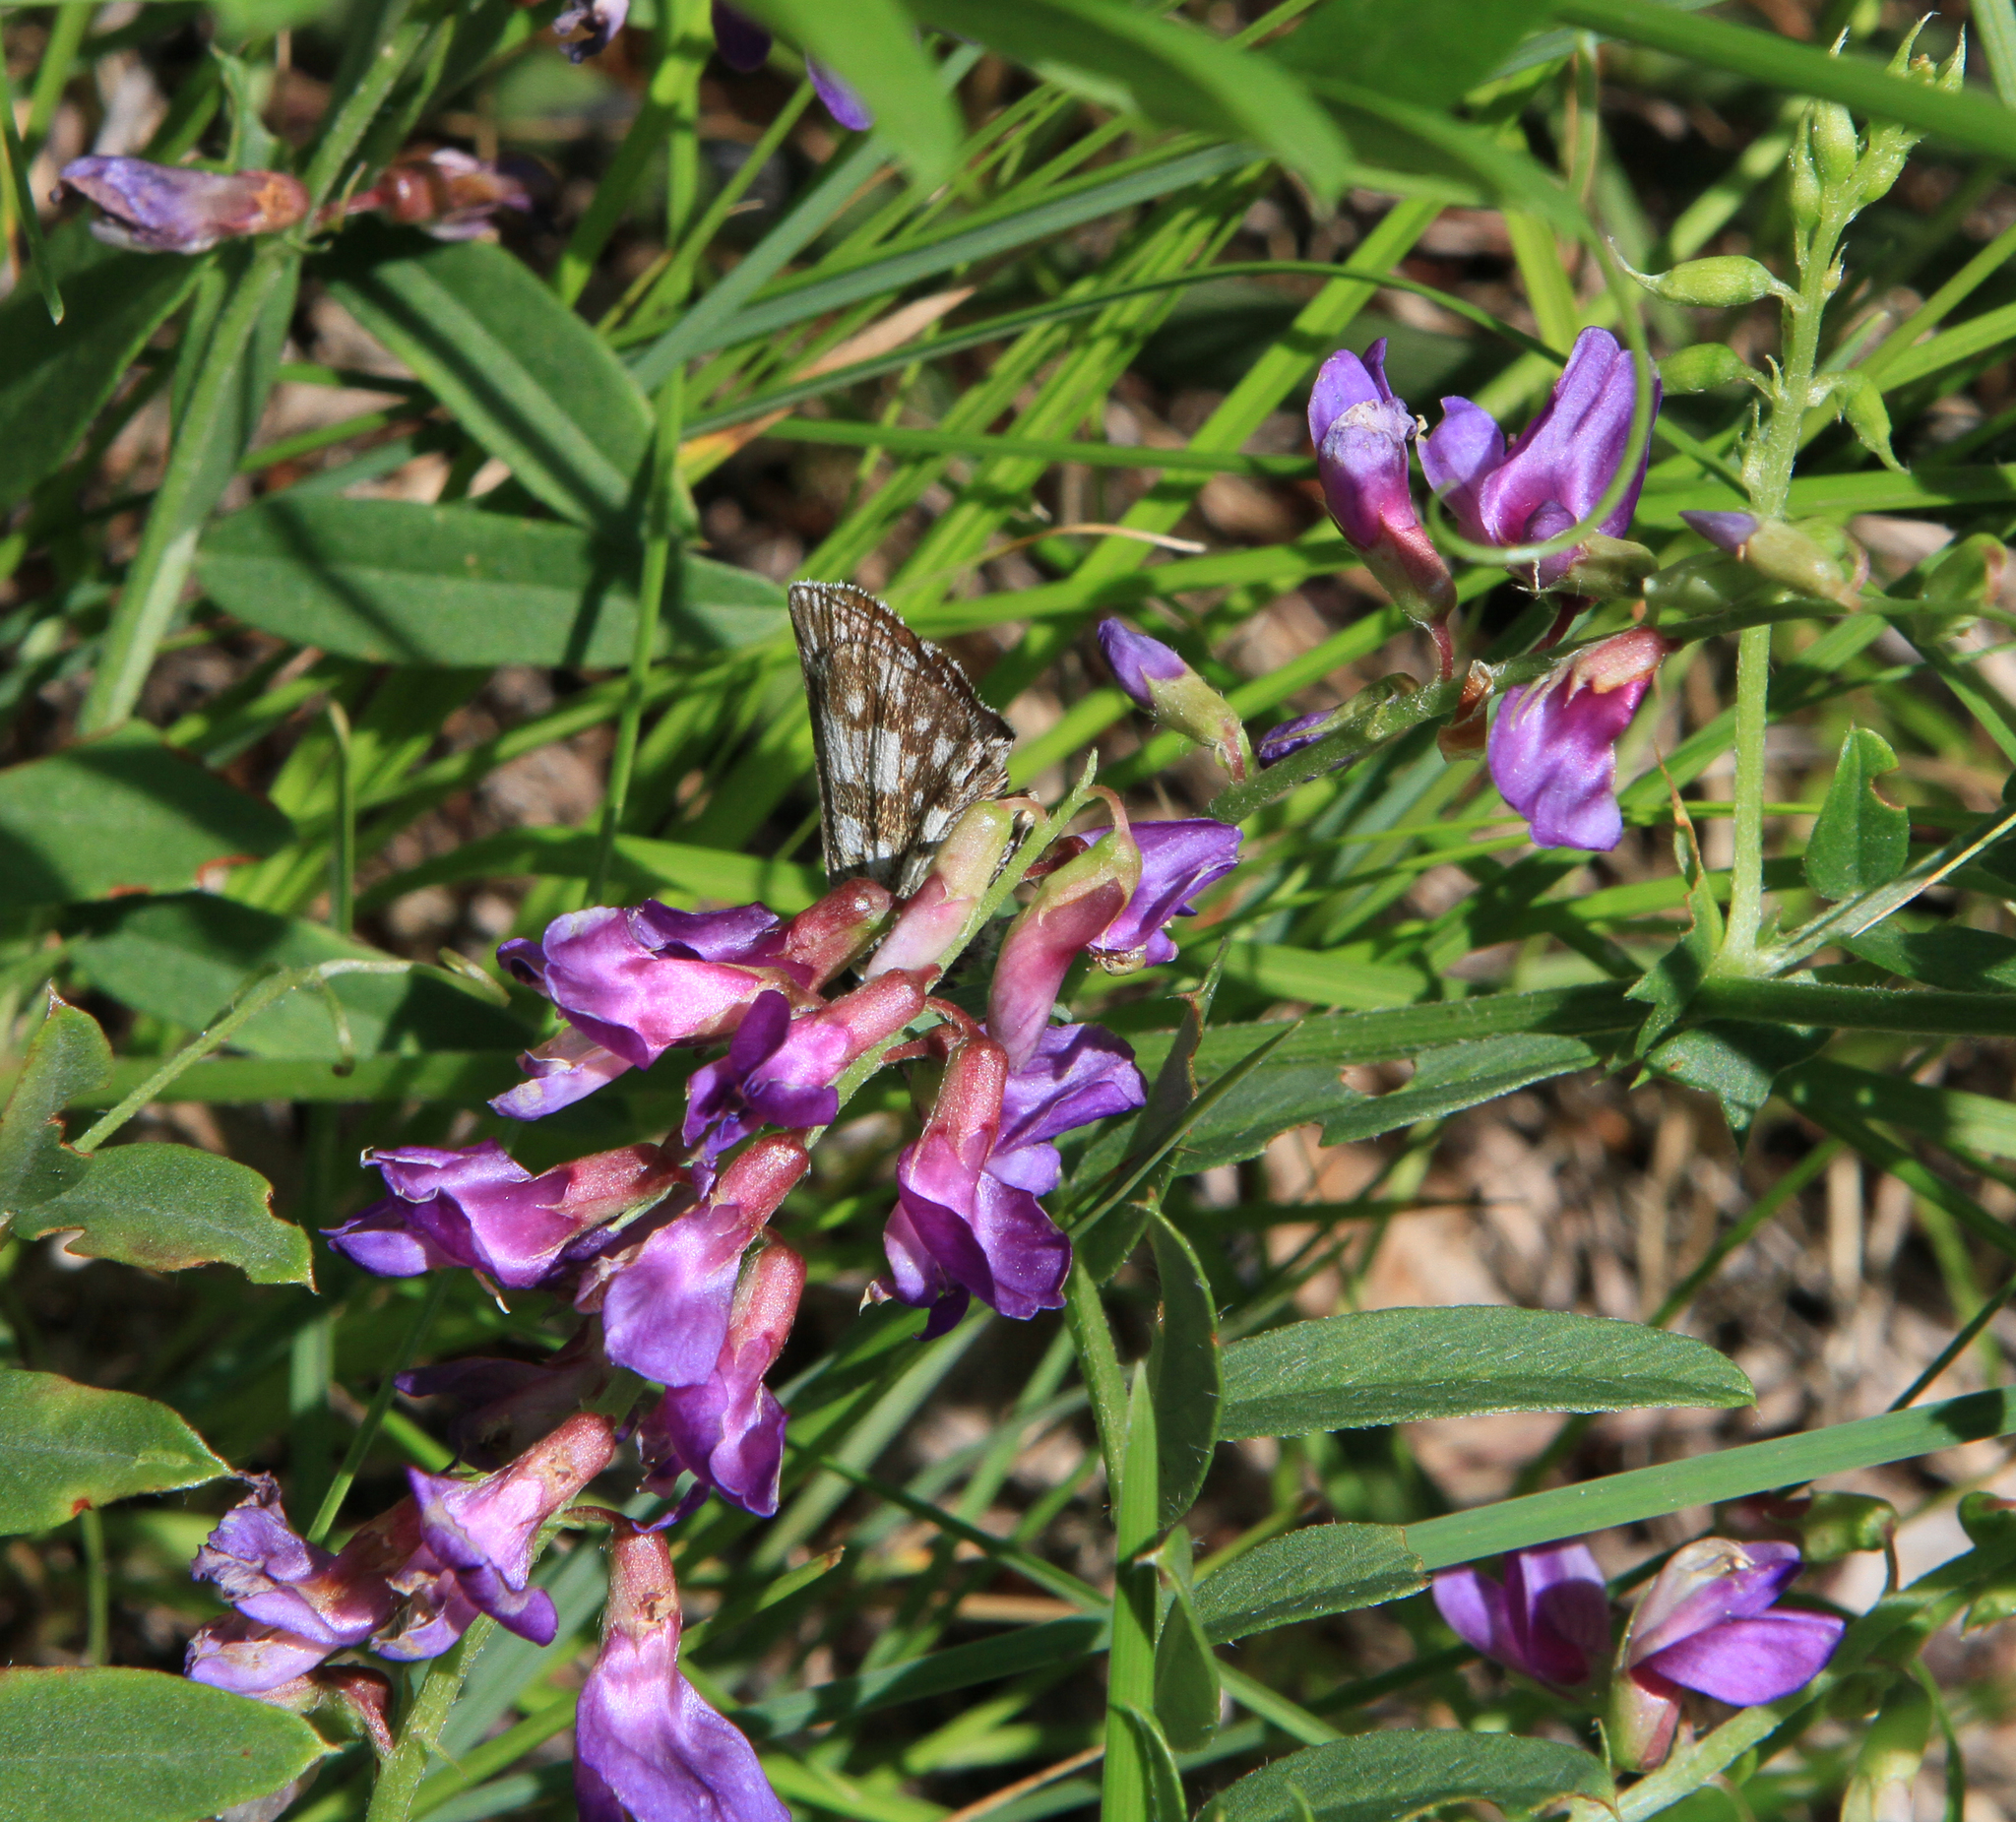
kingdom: Animalia
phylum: Arthropoda
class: Insecta
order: Lepidoptera
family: Hesperiidae
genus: Pyrgus
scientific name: Pyrgus serratulae
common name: Olive skipper
